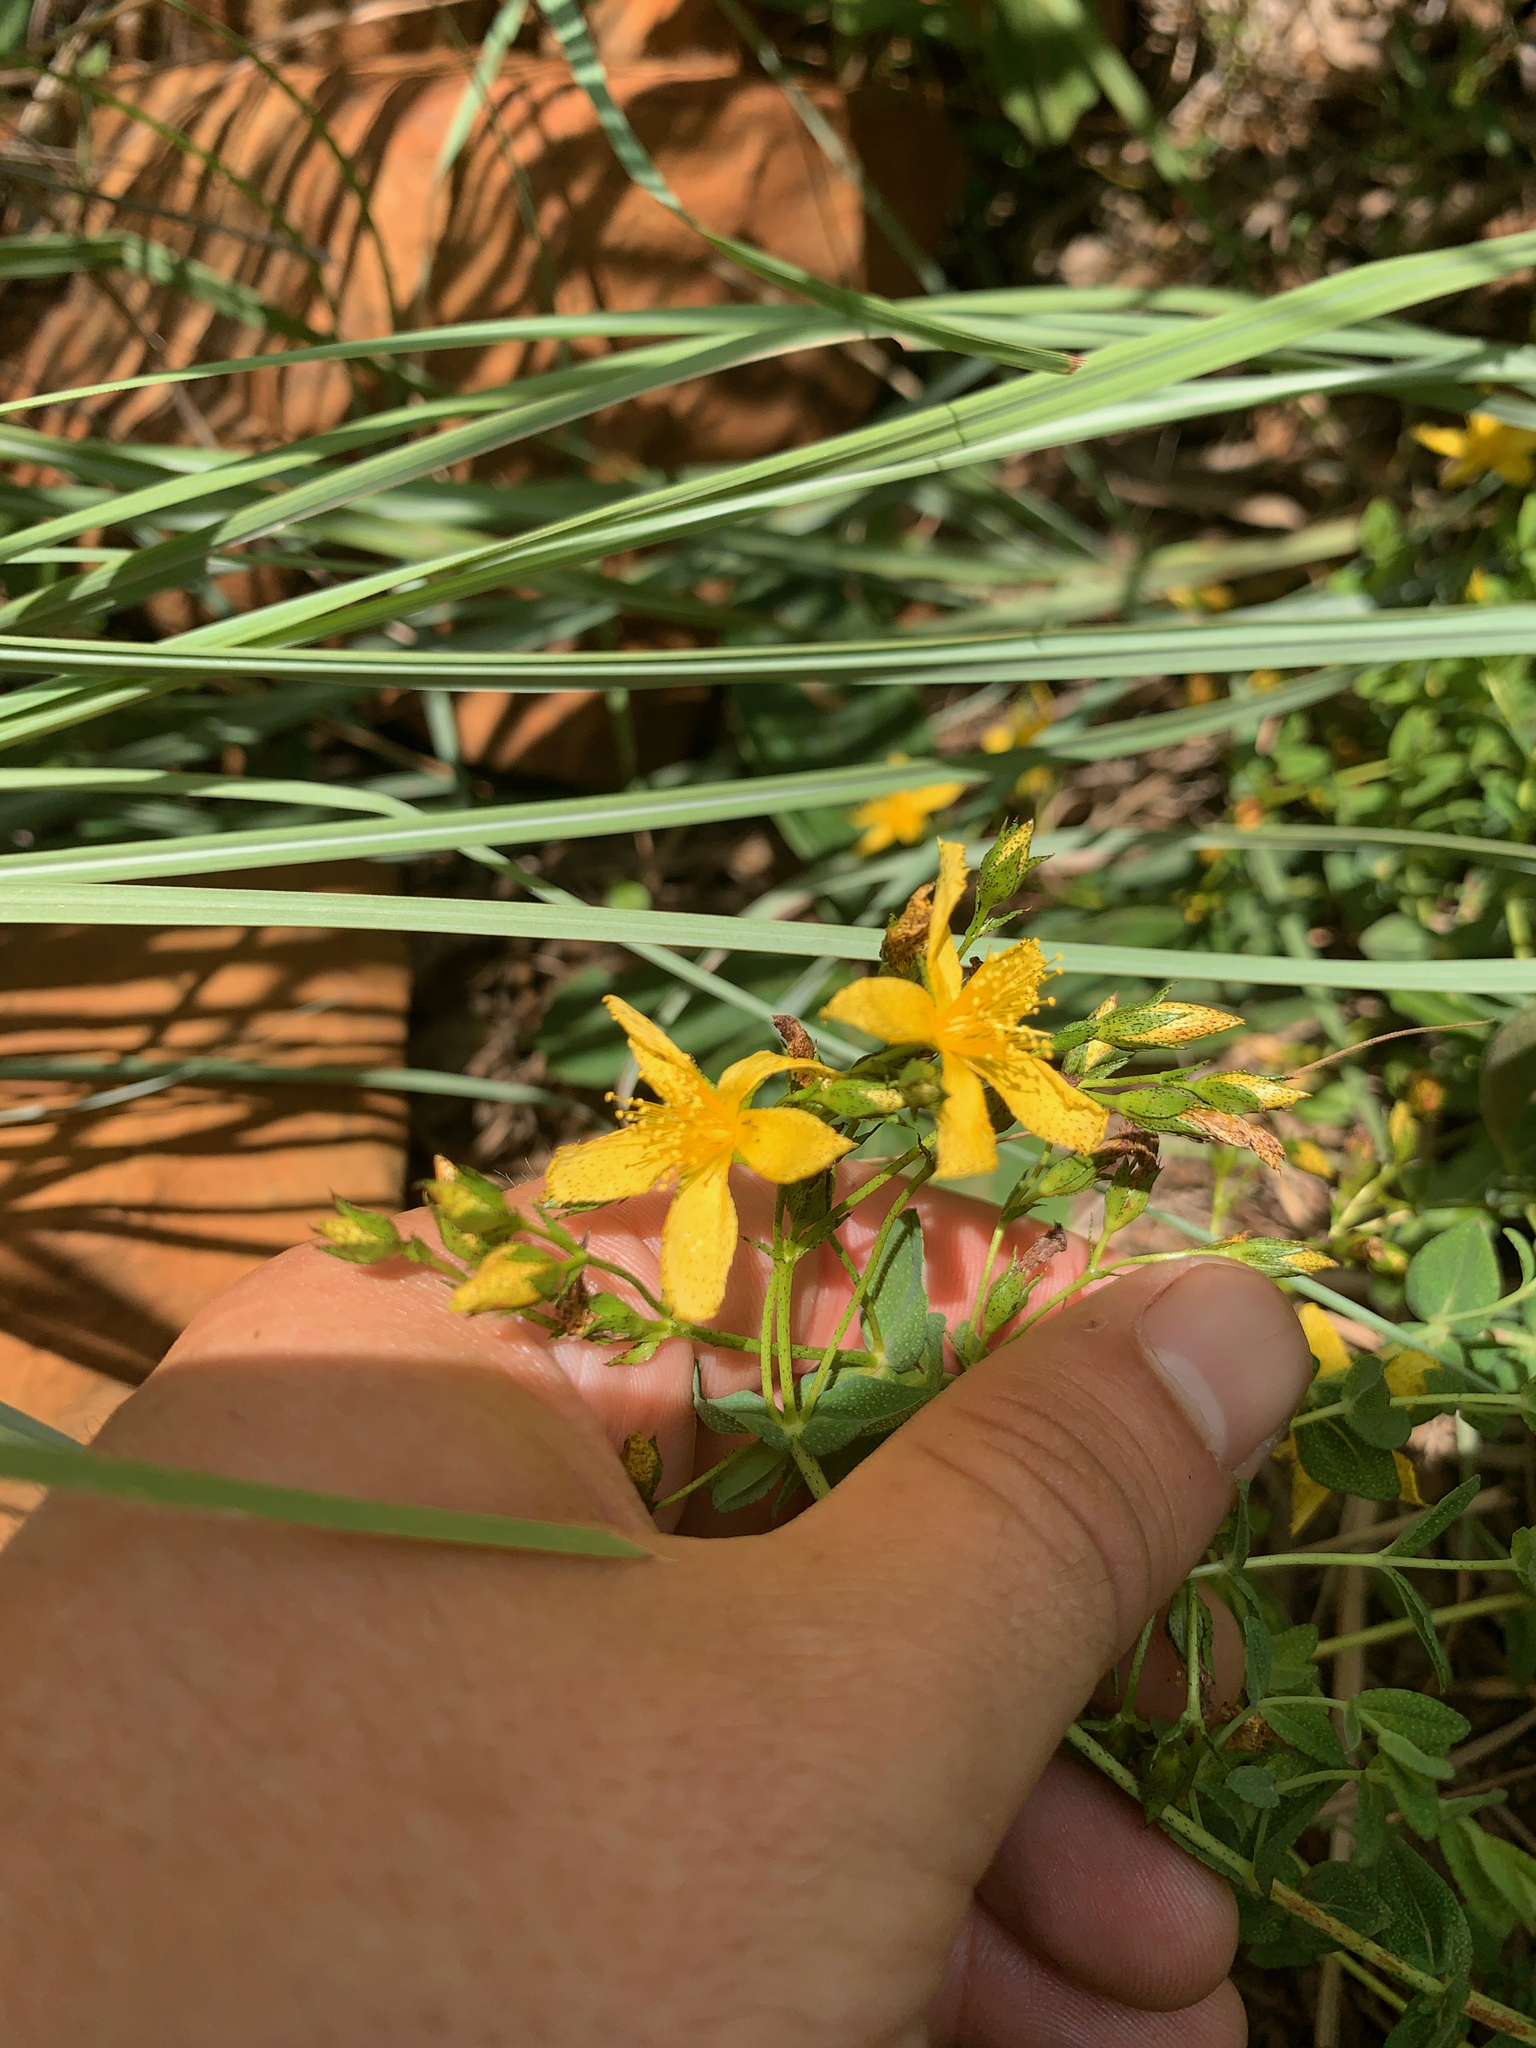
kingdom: Plantae
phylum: Tracheophyta
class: Magnoliopsida
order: Malpighiales
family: Hypericaceae
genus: Hypericum
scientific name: Hypericum aethiopicum
